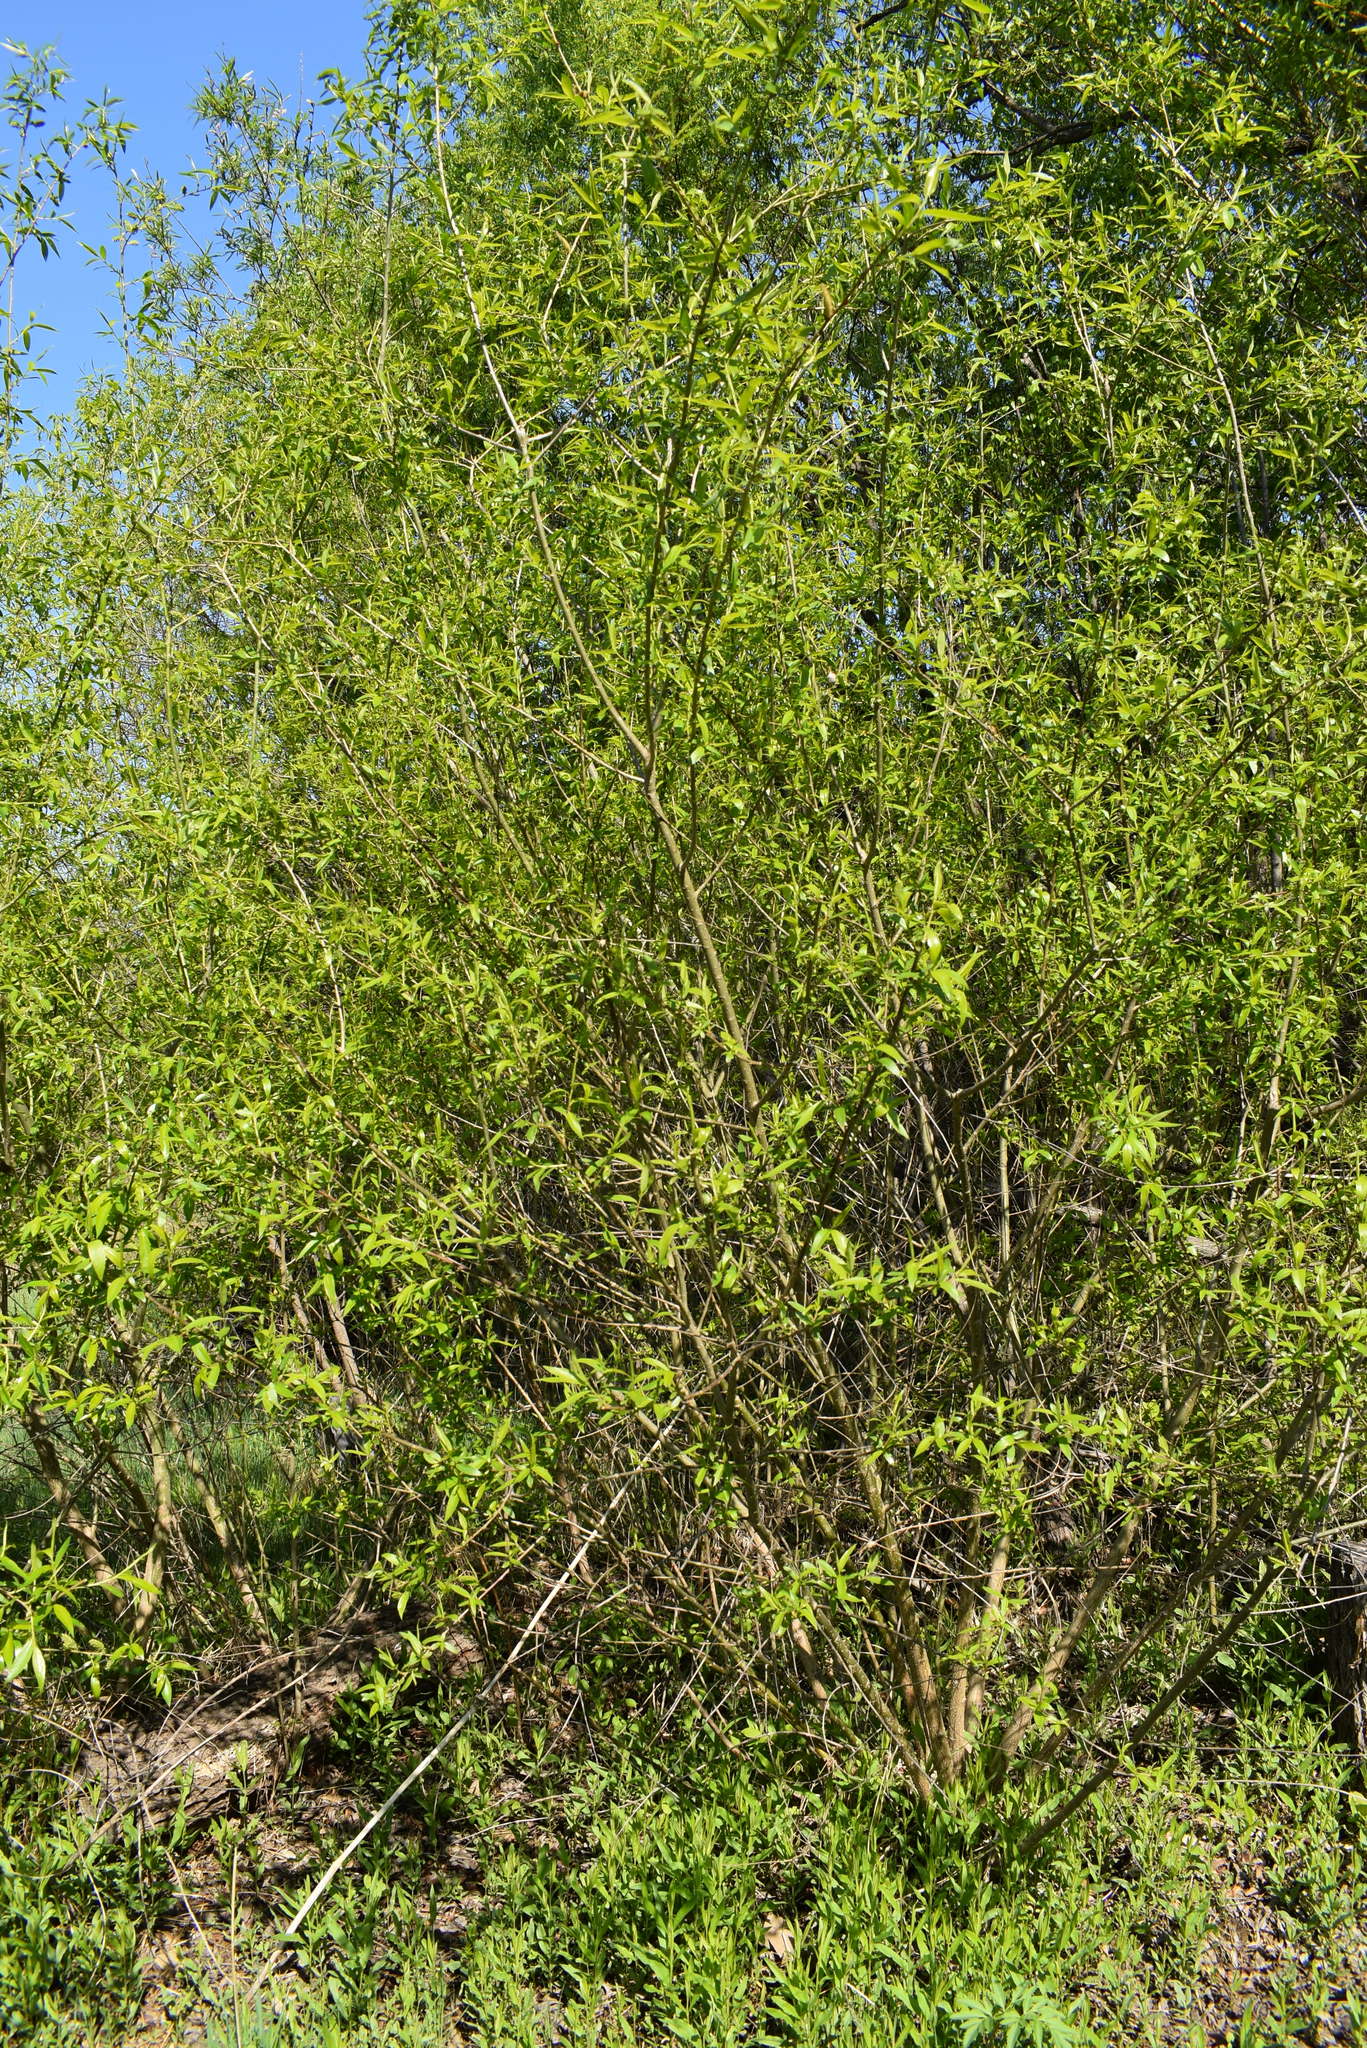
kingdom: Plantae
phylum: Tracheophyta
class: Magnoliopsida
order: Malpighiales
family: Salicaceae
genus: Salix
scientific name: Salix pierotii
